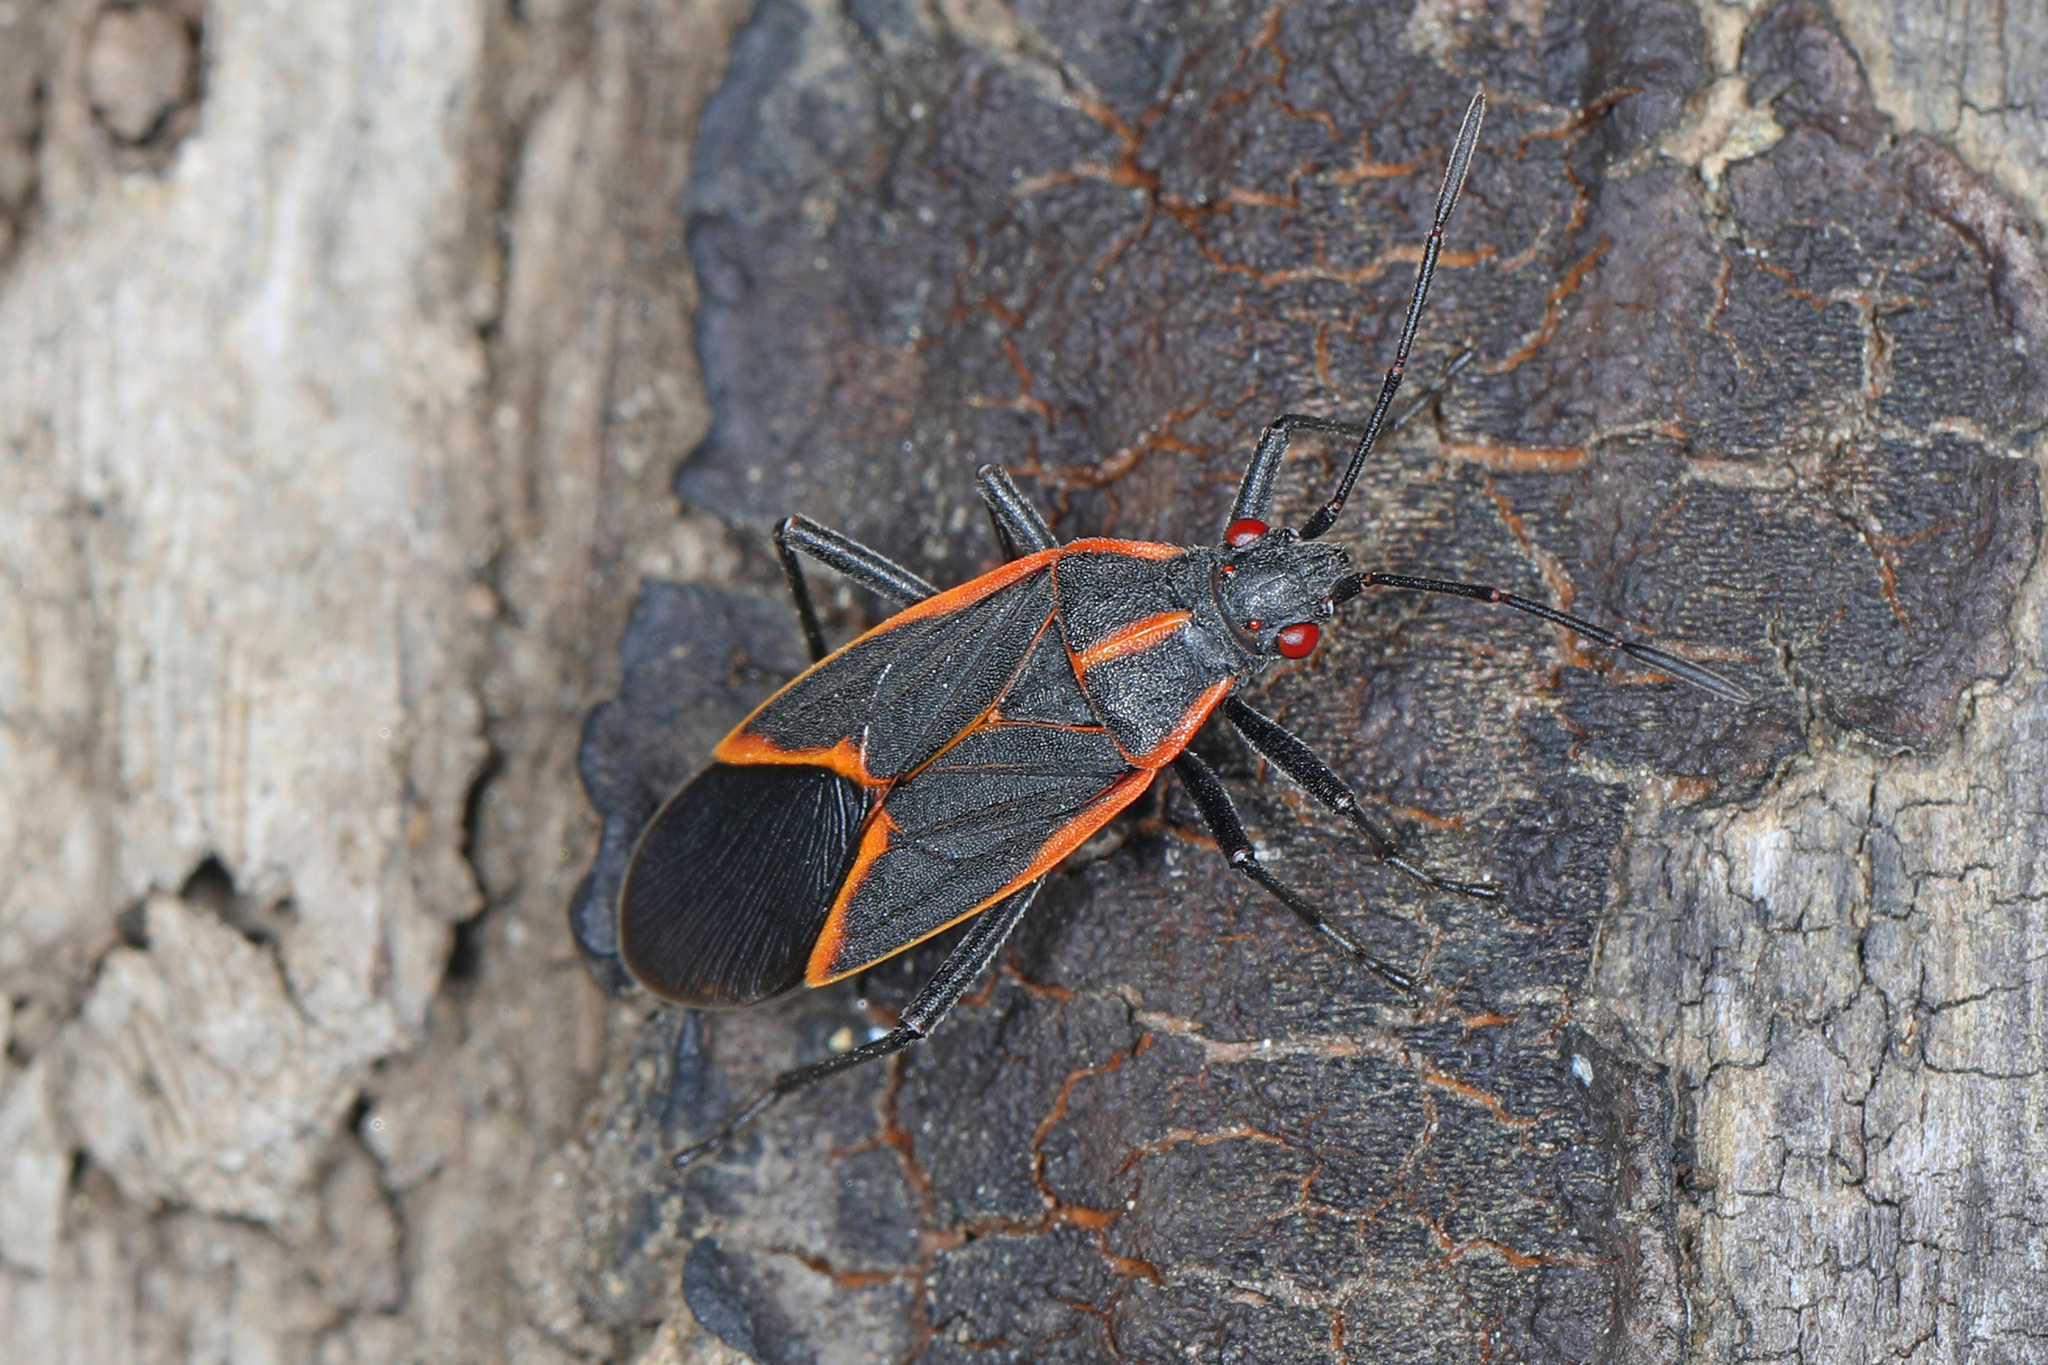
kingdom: Animalia
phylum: Arthropoda
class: Insecta
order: Hemiptera
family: Rhopalidae
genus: Boisea
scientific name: Boisea trivittata
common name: Boxelder bug
